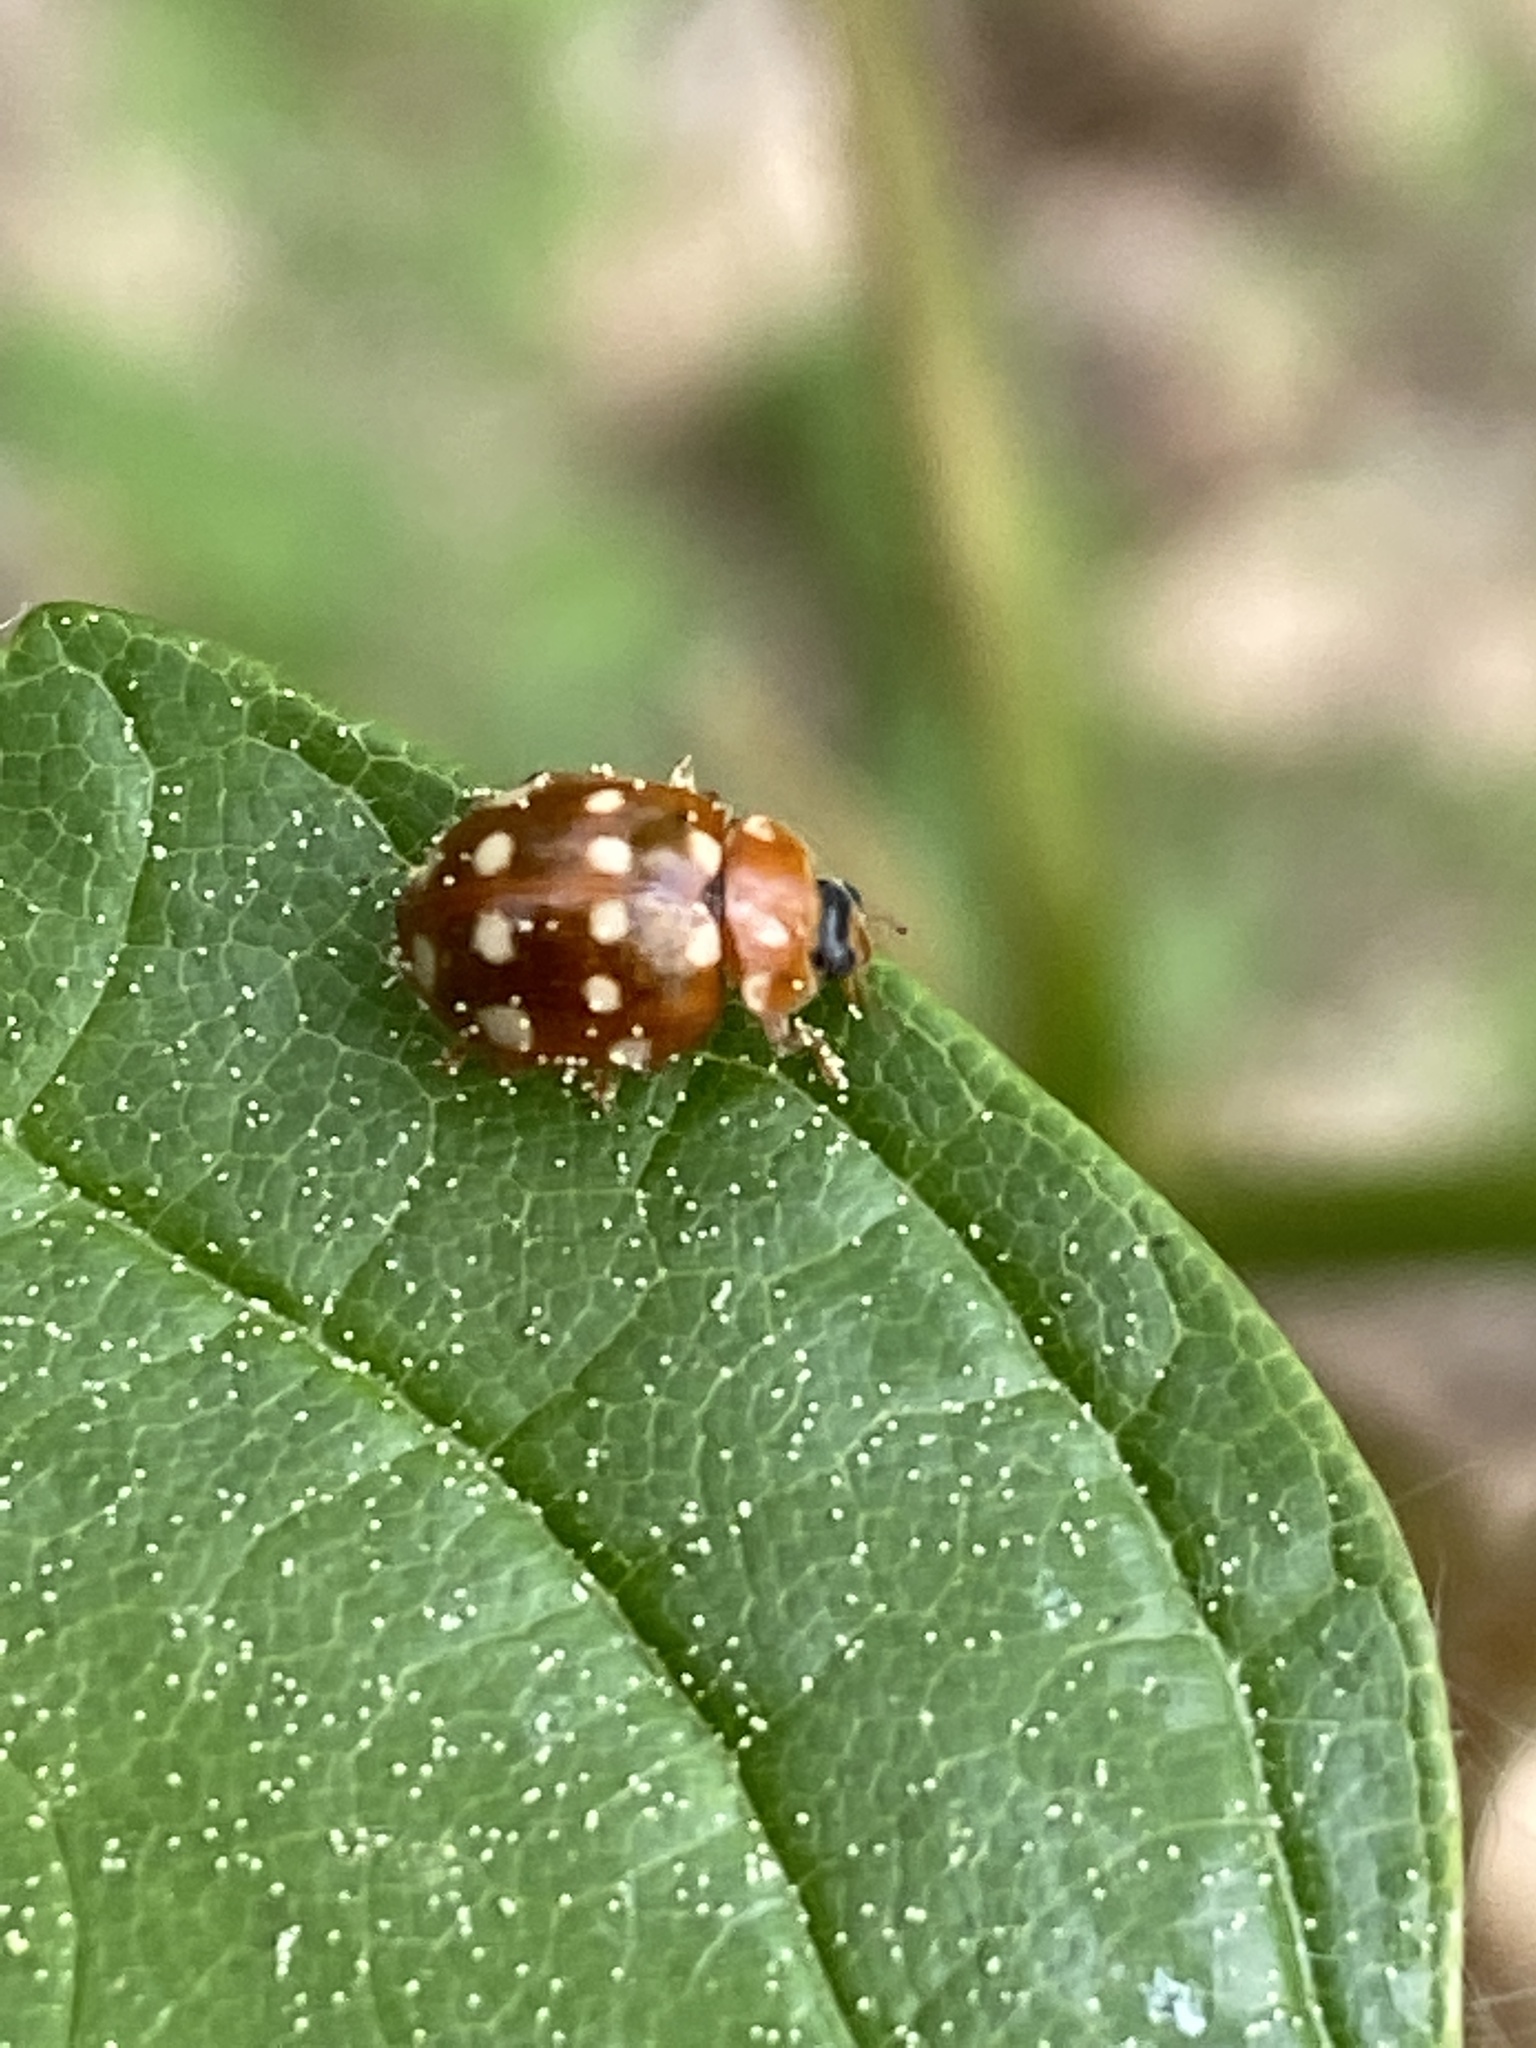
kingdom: Animalia
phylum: Arthropoda
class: Insecta
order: Coleoptera
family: Coccinellidae
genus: Calvia
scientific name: Calvia quatuordecimguttata
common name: Cream-spot ladybird
